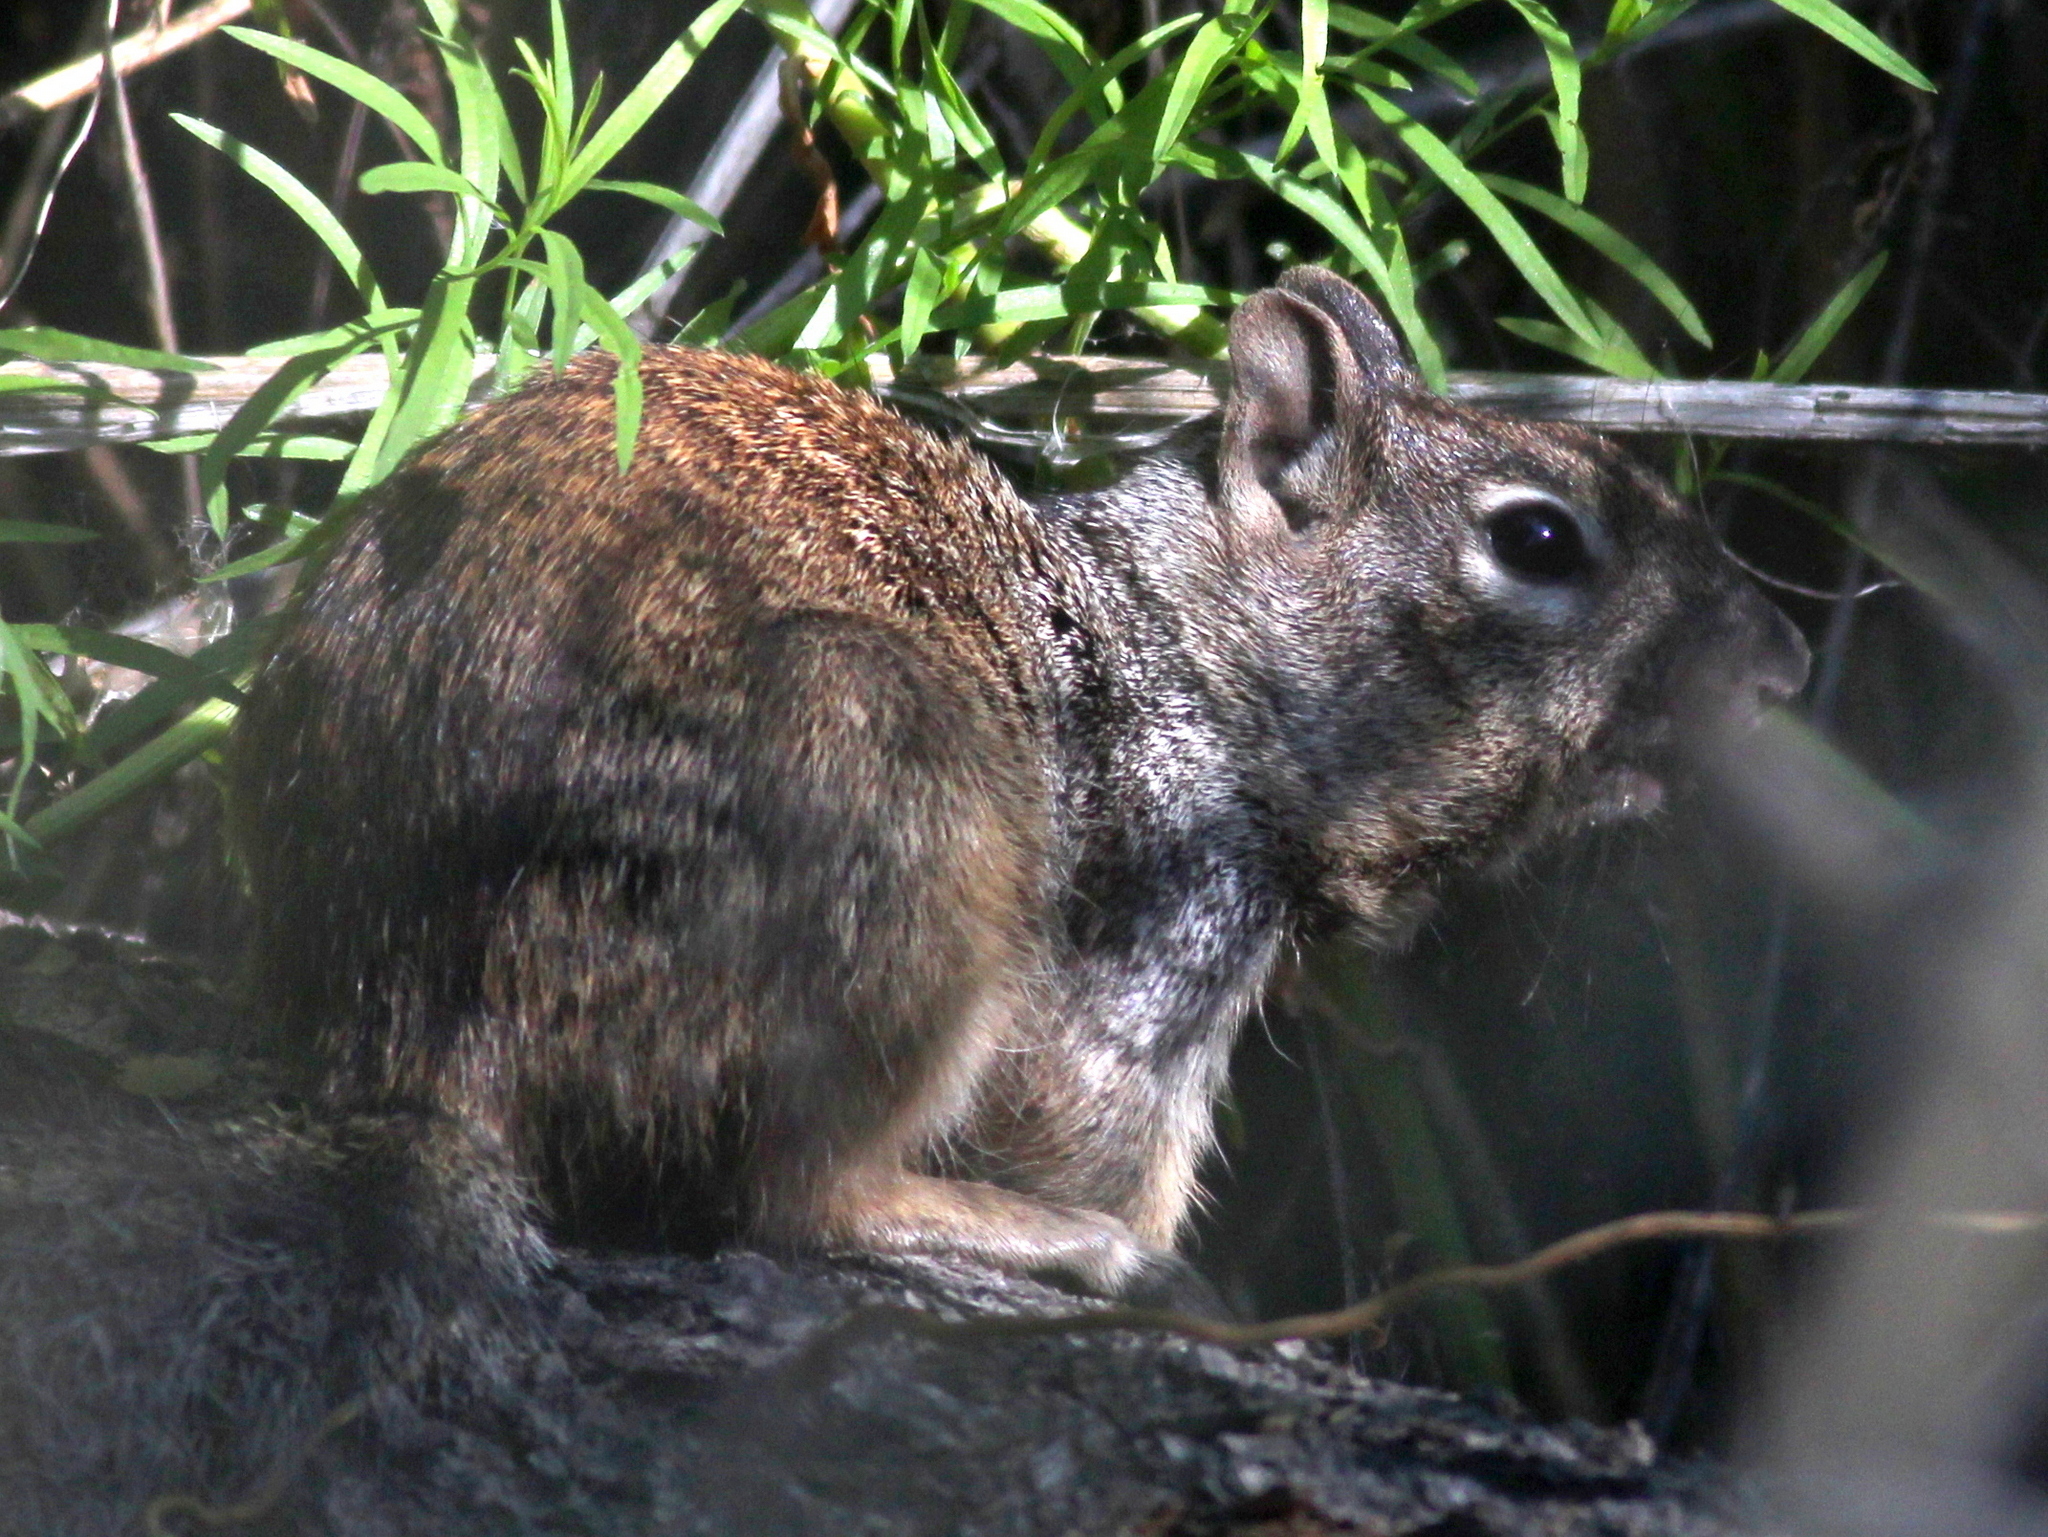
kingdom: Animalia
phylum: Chordata
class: Mammalia
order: Rodentia
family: Sciuridae
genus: Otospermophilus
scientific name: Otospermophilus variegatus
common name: Rock squirrel
